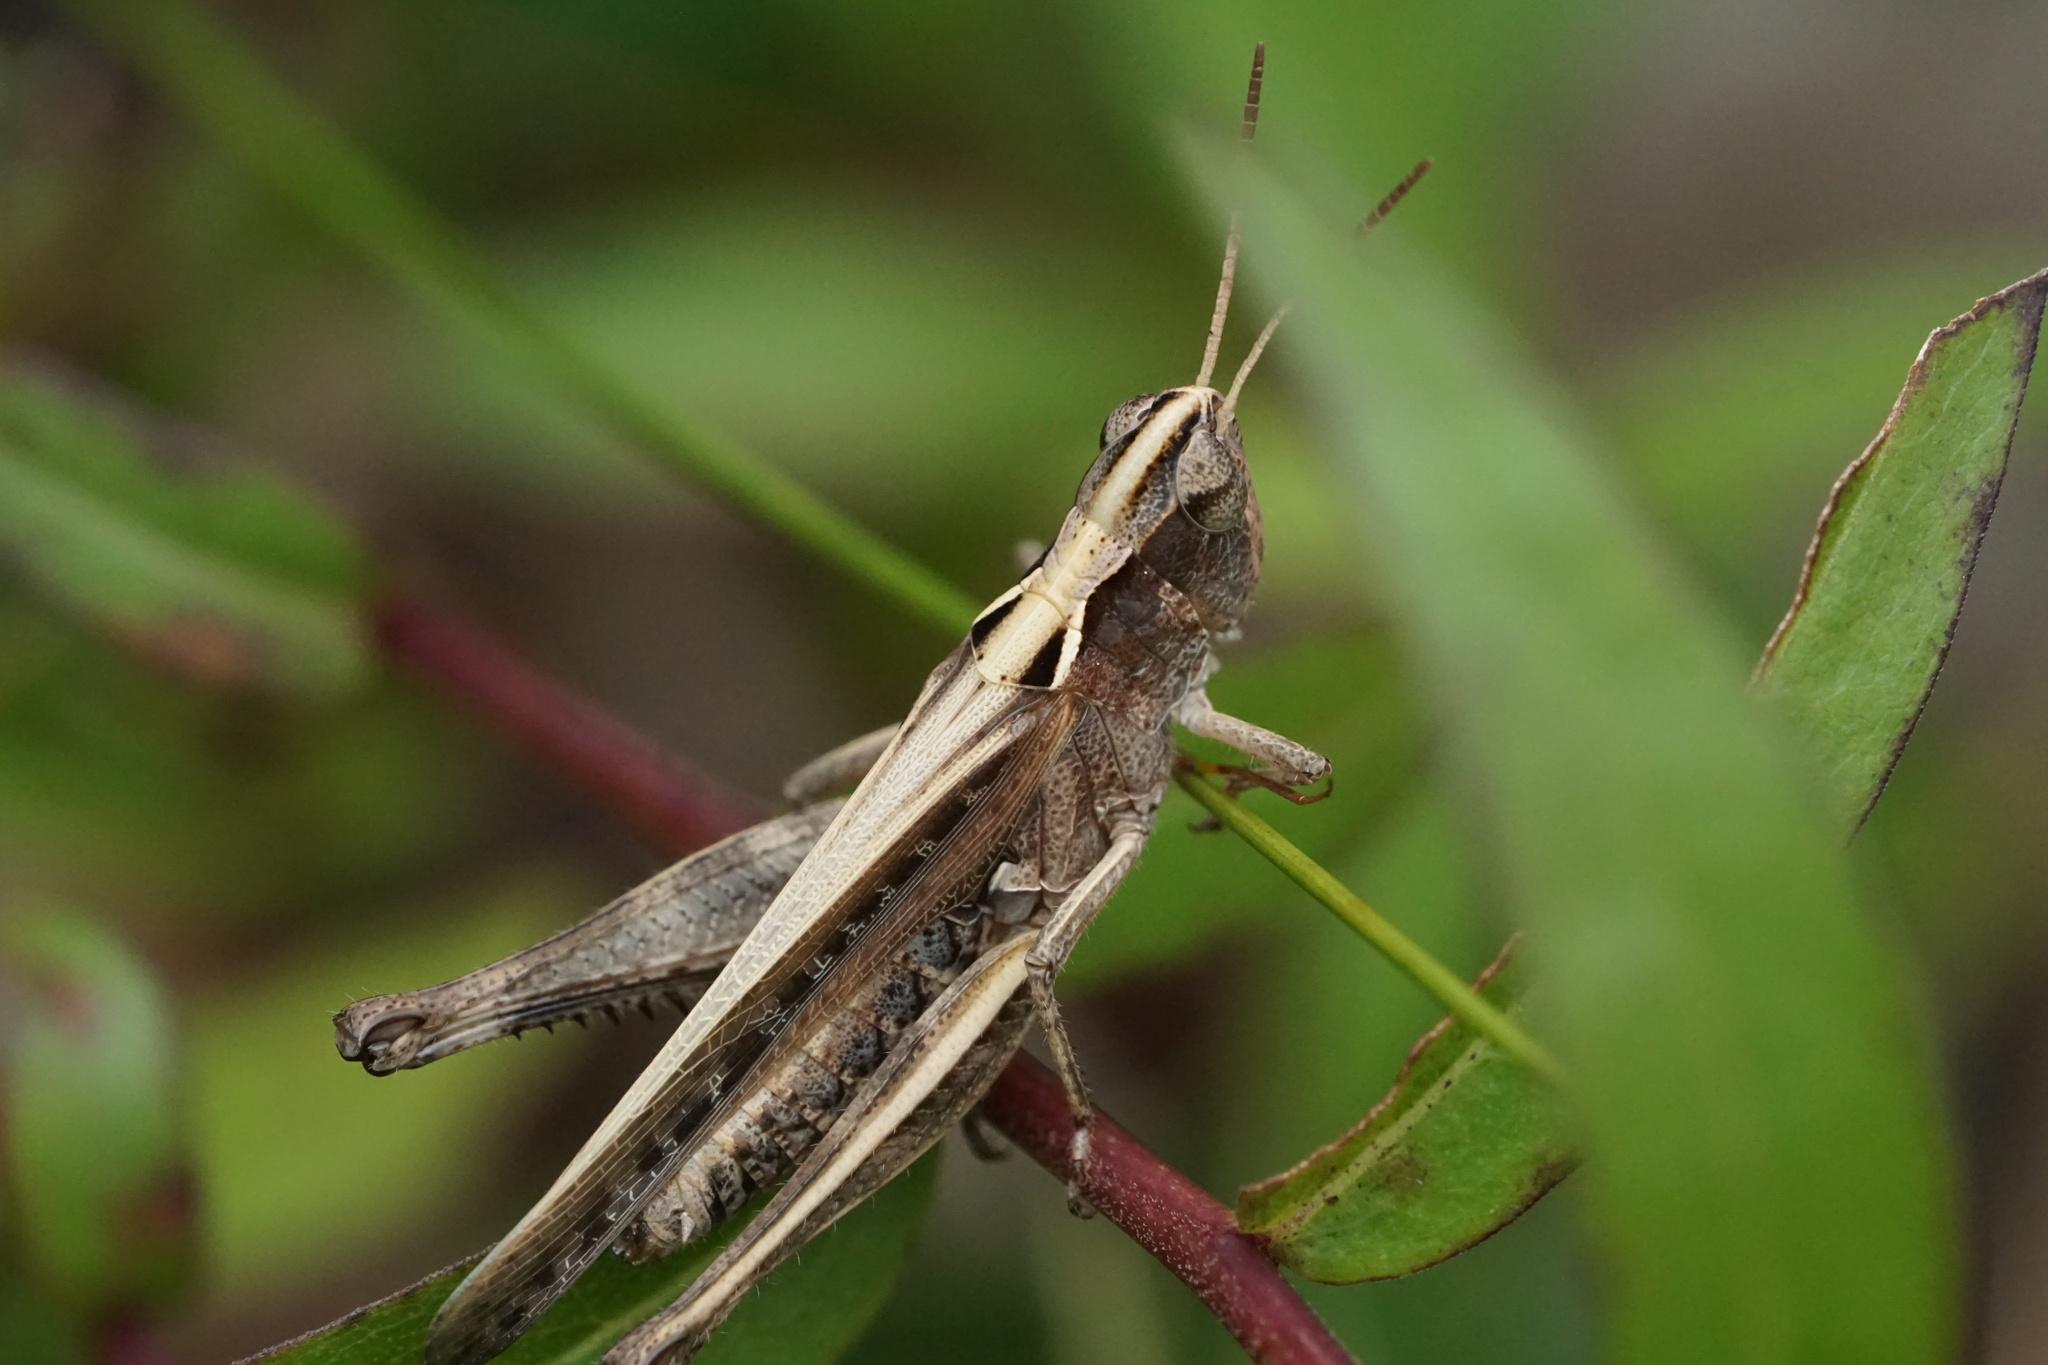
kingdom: Animalia
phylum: Arthropoda
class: Insecta
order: Orthoptera
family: Acrididae
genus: Orphulella
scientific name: Orphulella pelidna
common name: Spotted-wing grasshopper
